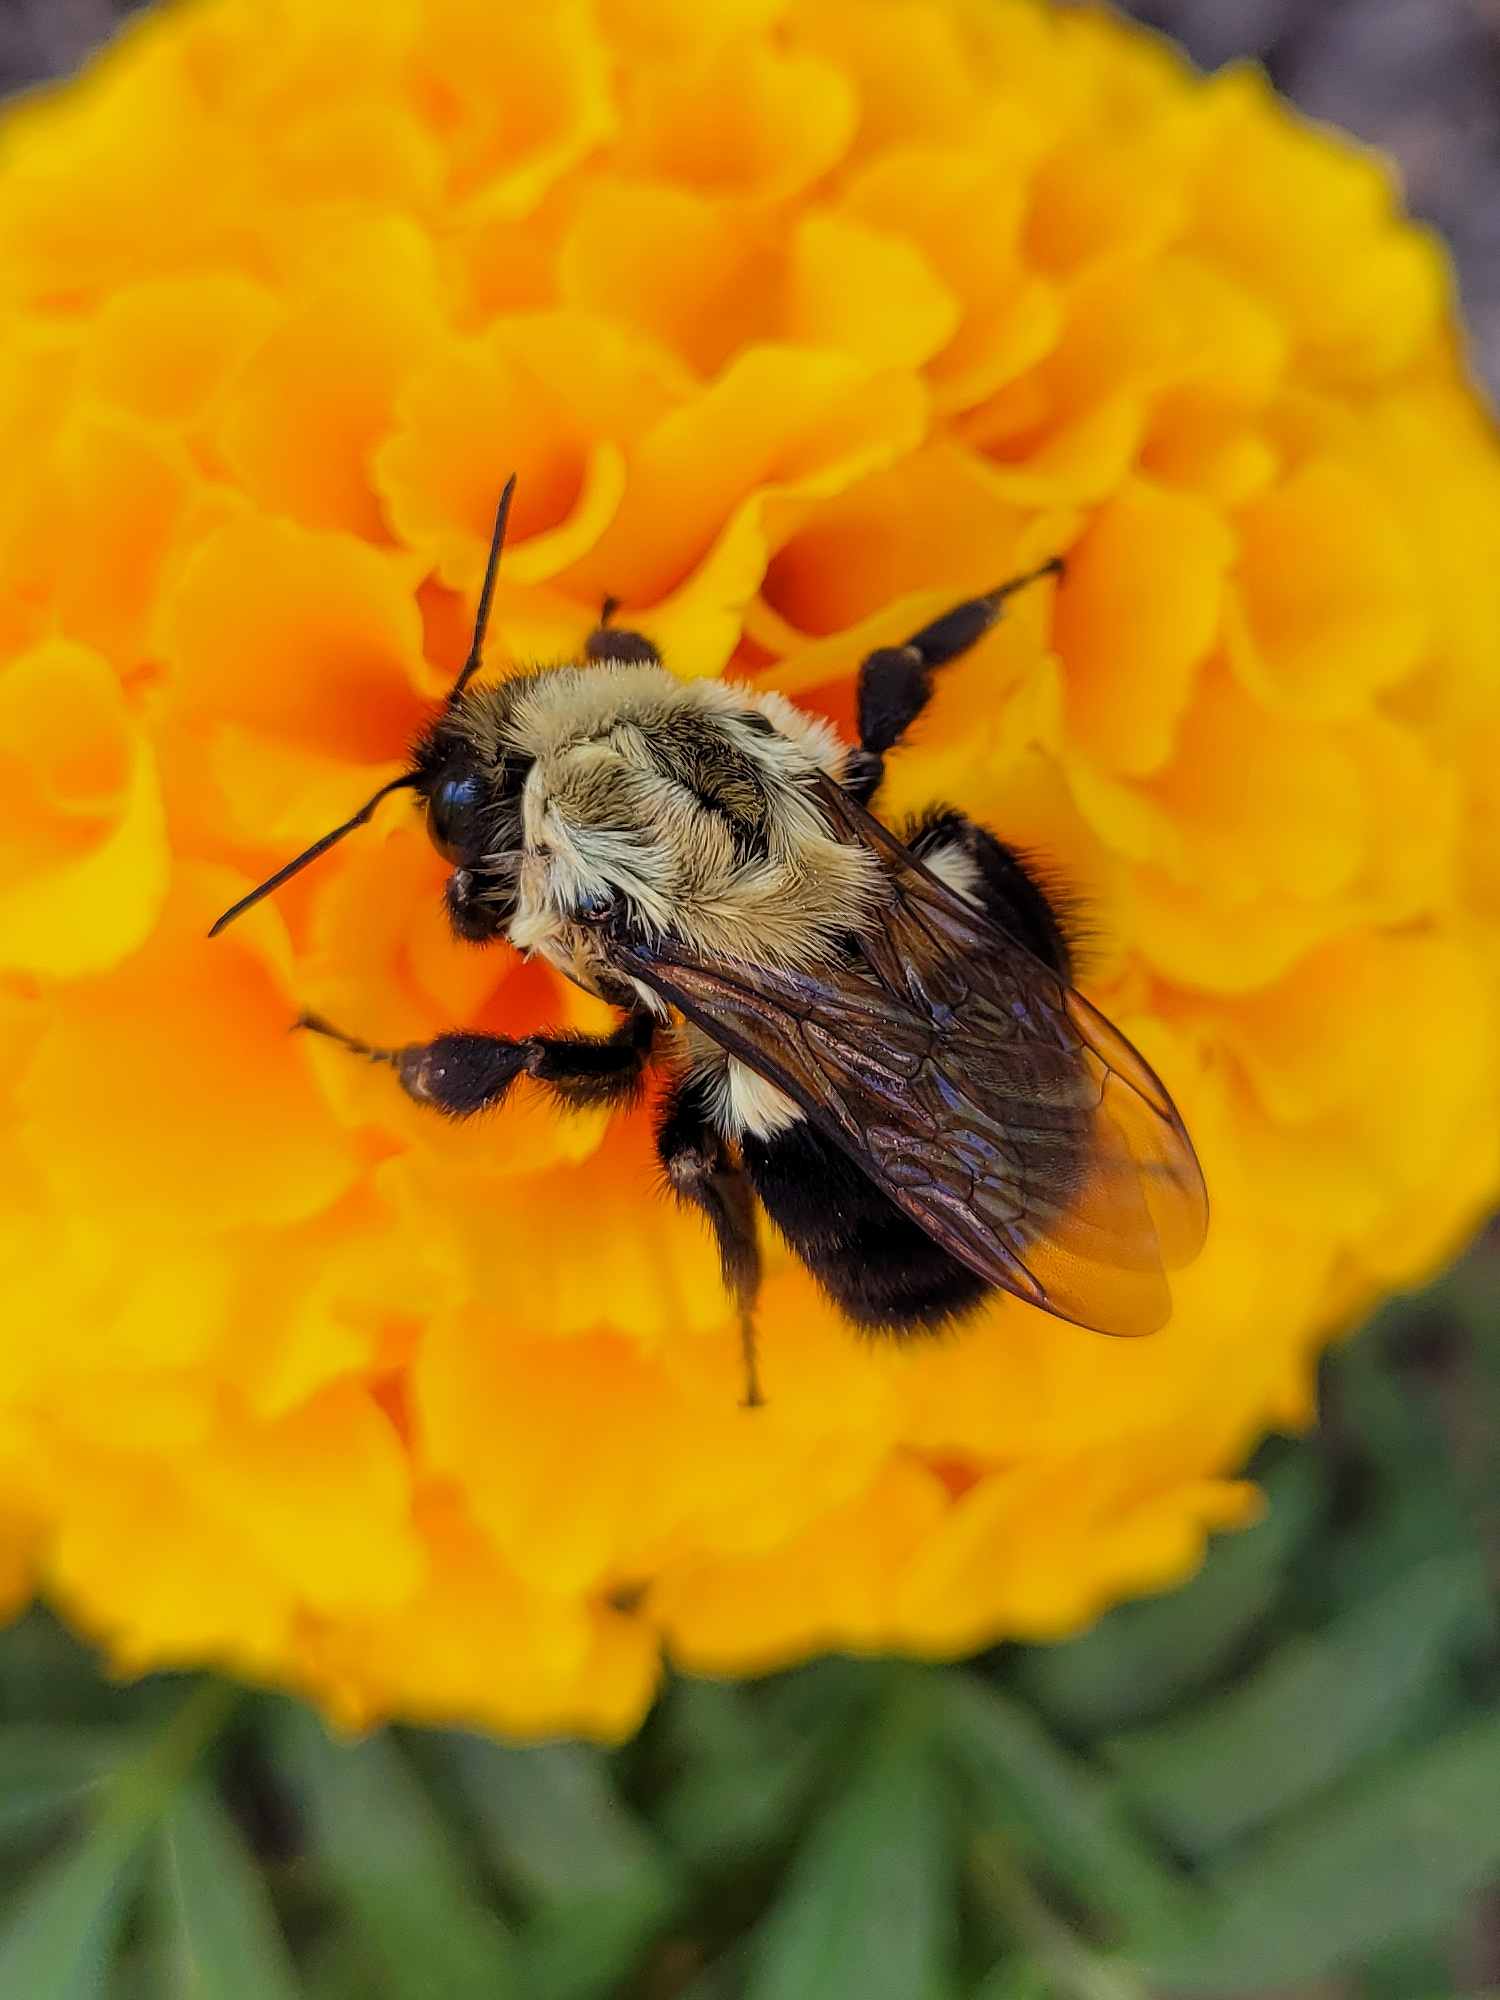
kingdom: Animalia
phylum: Arthropoda
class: Insecta
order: Hymenoptera
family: Apidae
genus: Bombus
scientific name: Bombus impatiens
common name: Common eastern bumble bee
